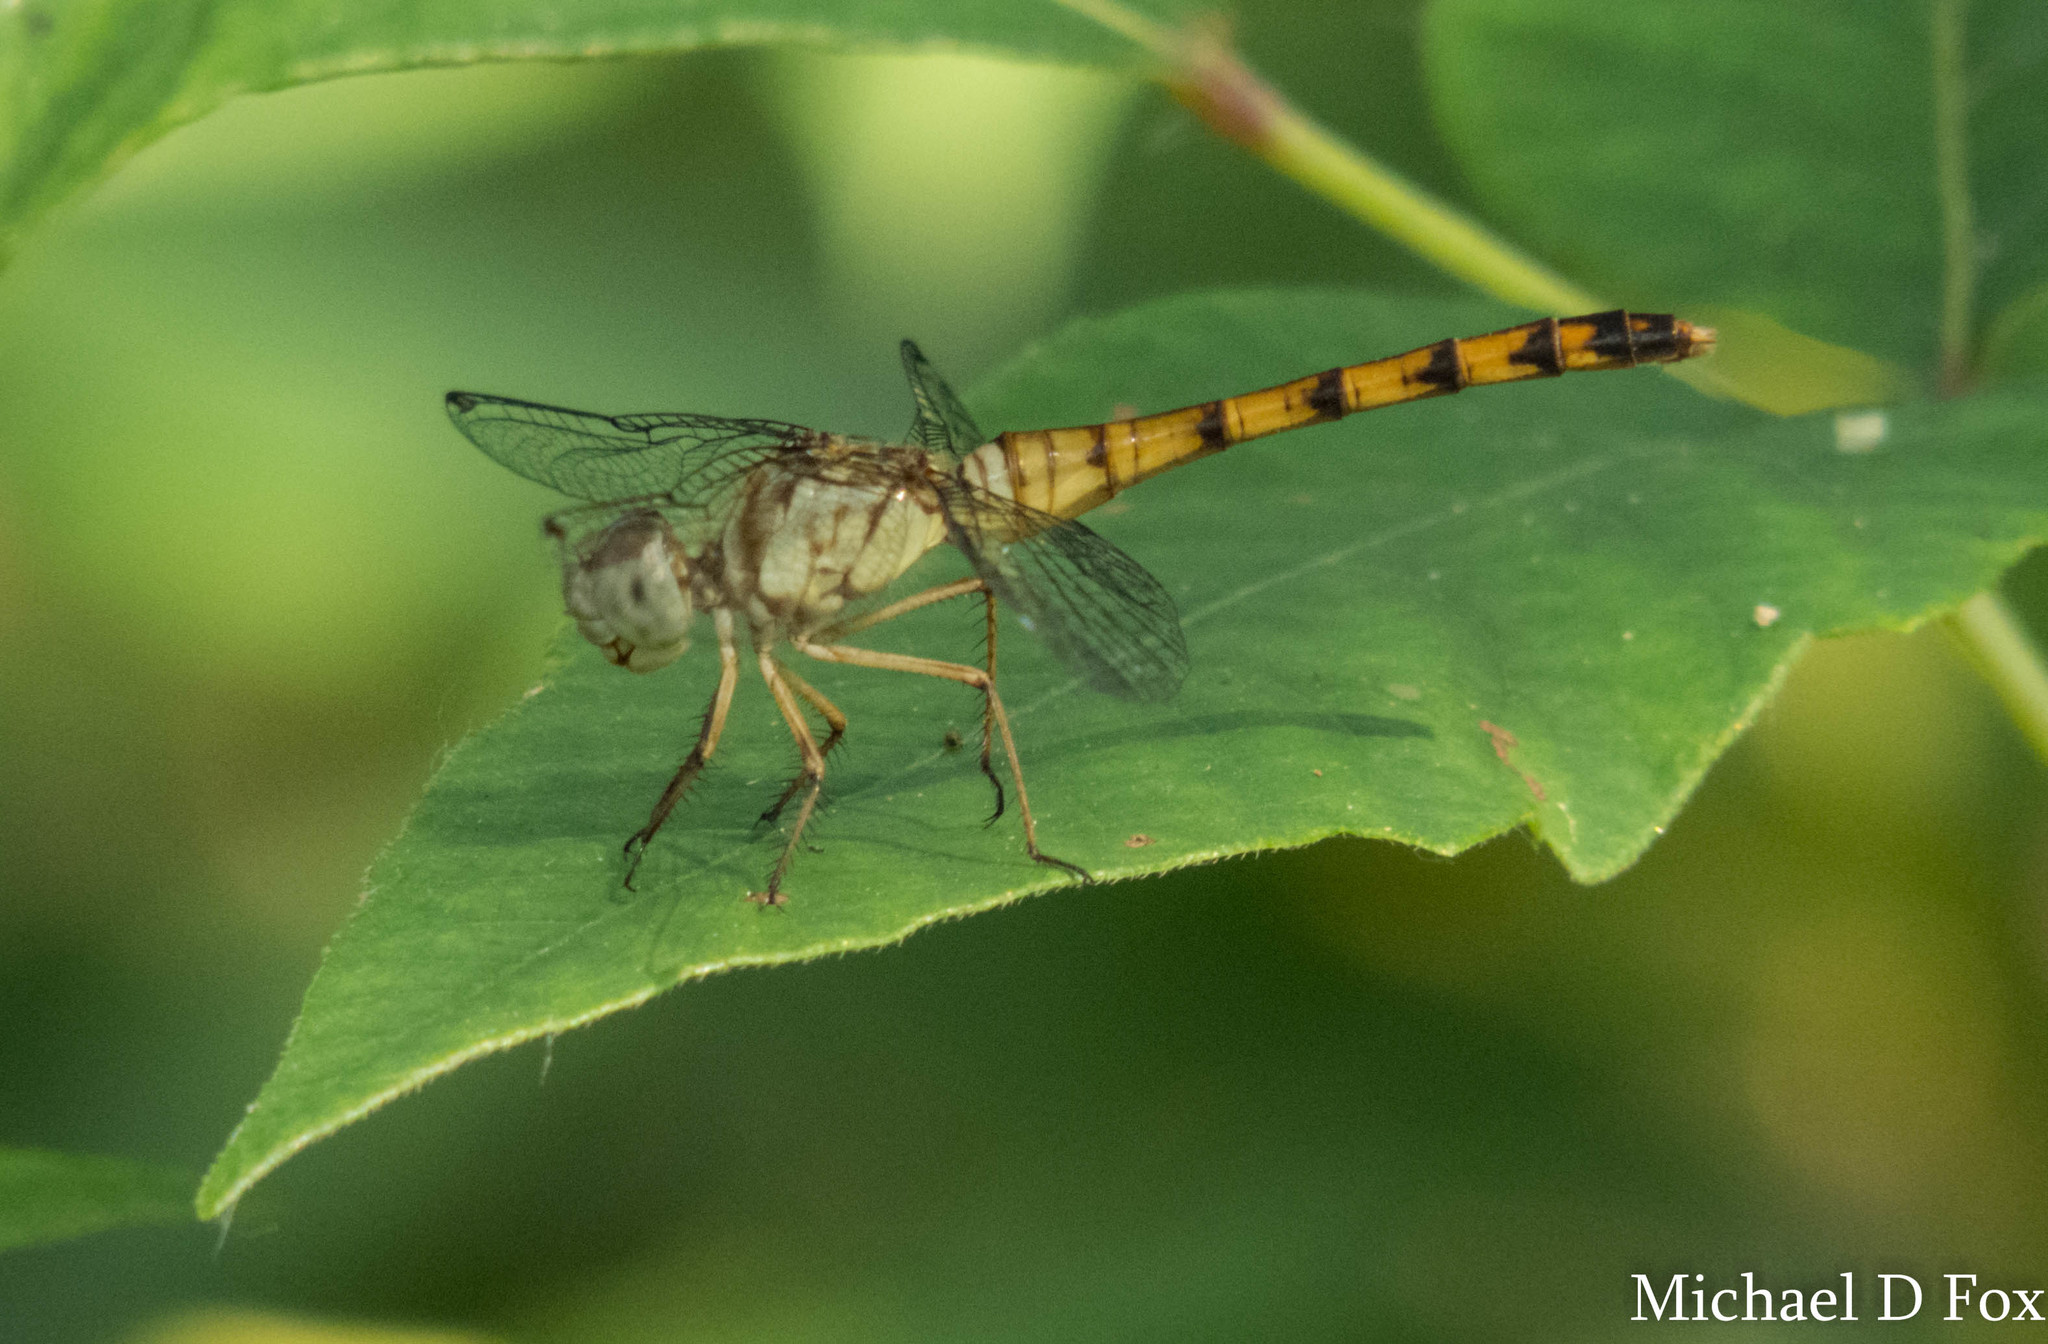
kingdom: Animalia
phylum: Arthropoda
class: Insecta
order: Odonata
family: Libellulidae
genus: Sympetrum
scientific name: Sympetrum ambiguum
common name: Blue-faced meadowhawk
